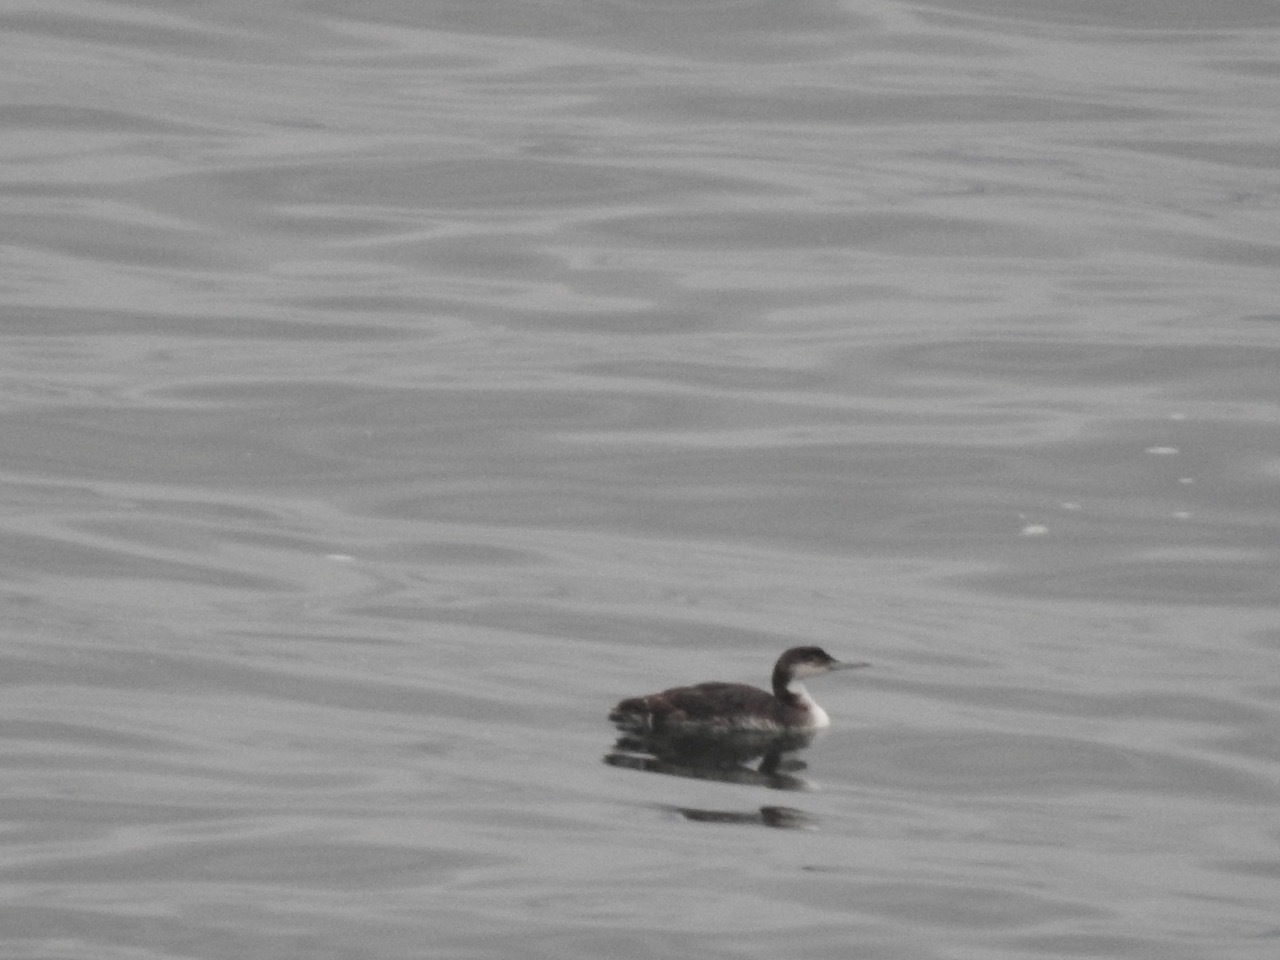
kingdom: Animalia
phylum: Chordata
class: Aves
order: Gaviiformes
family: Gaviidae
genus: Gavia
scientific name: Gavia immer
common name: Common loon
